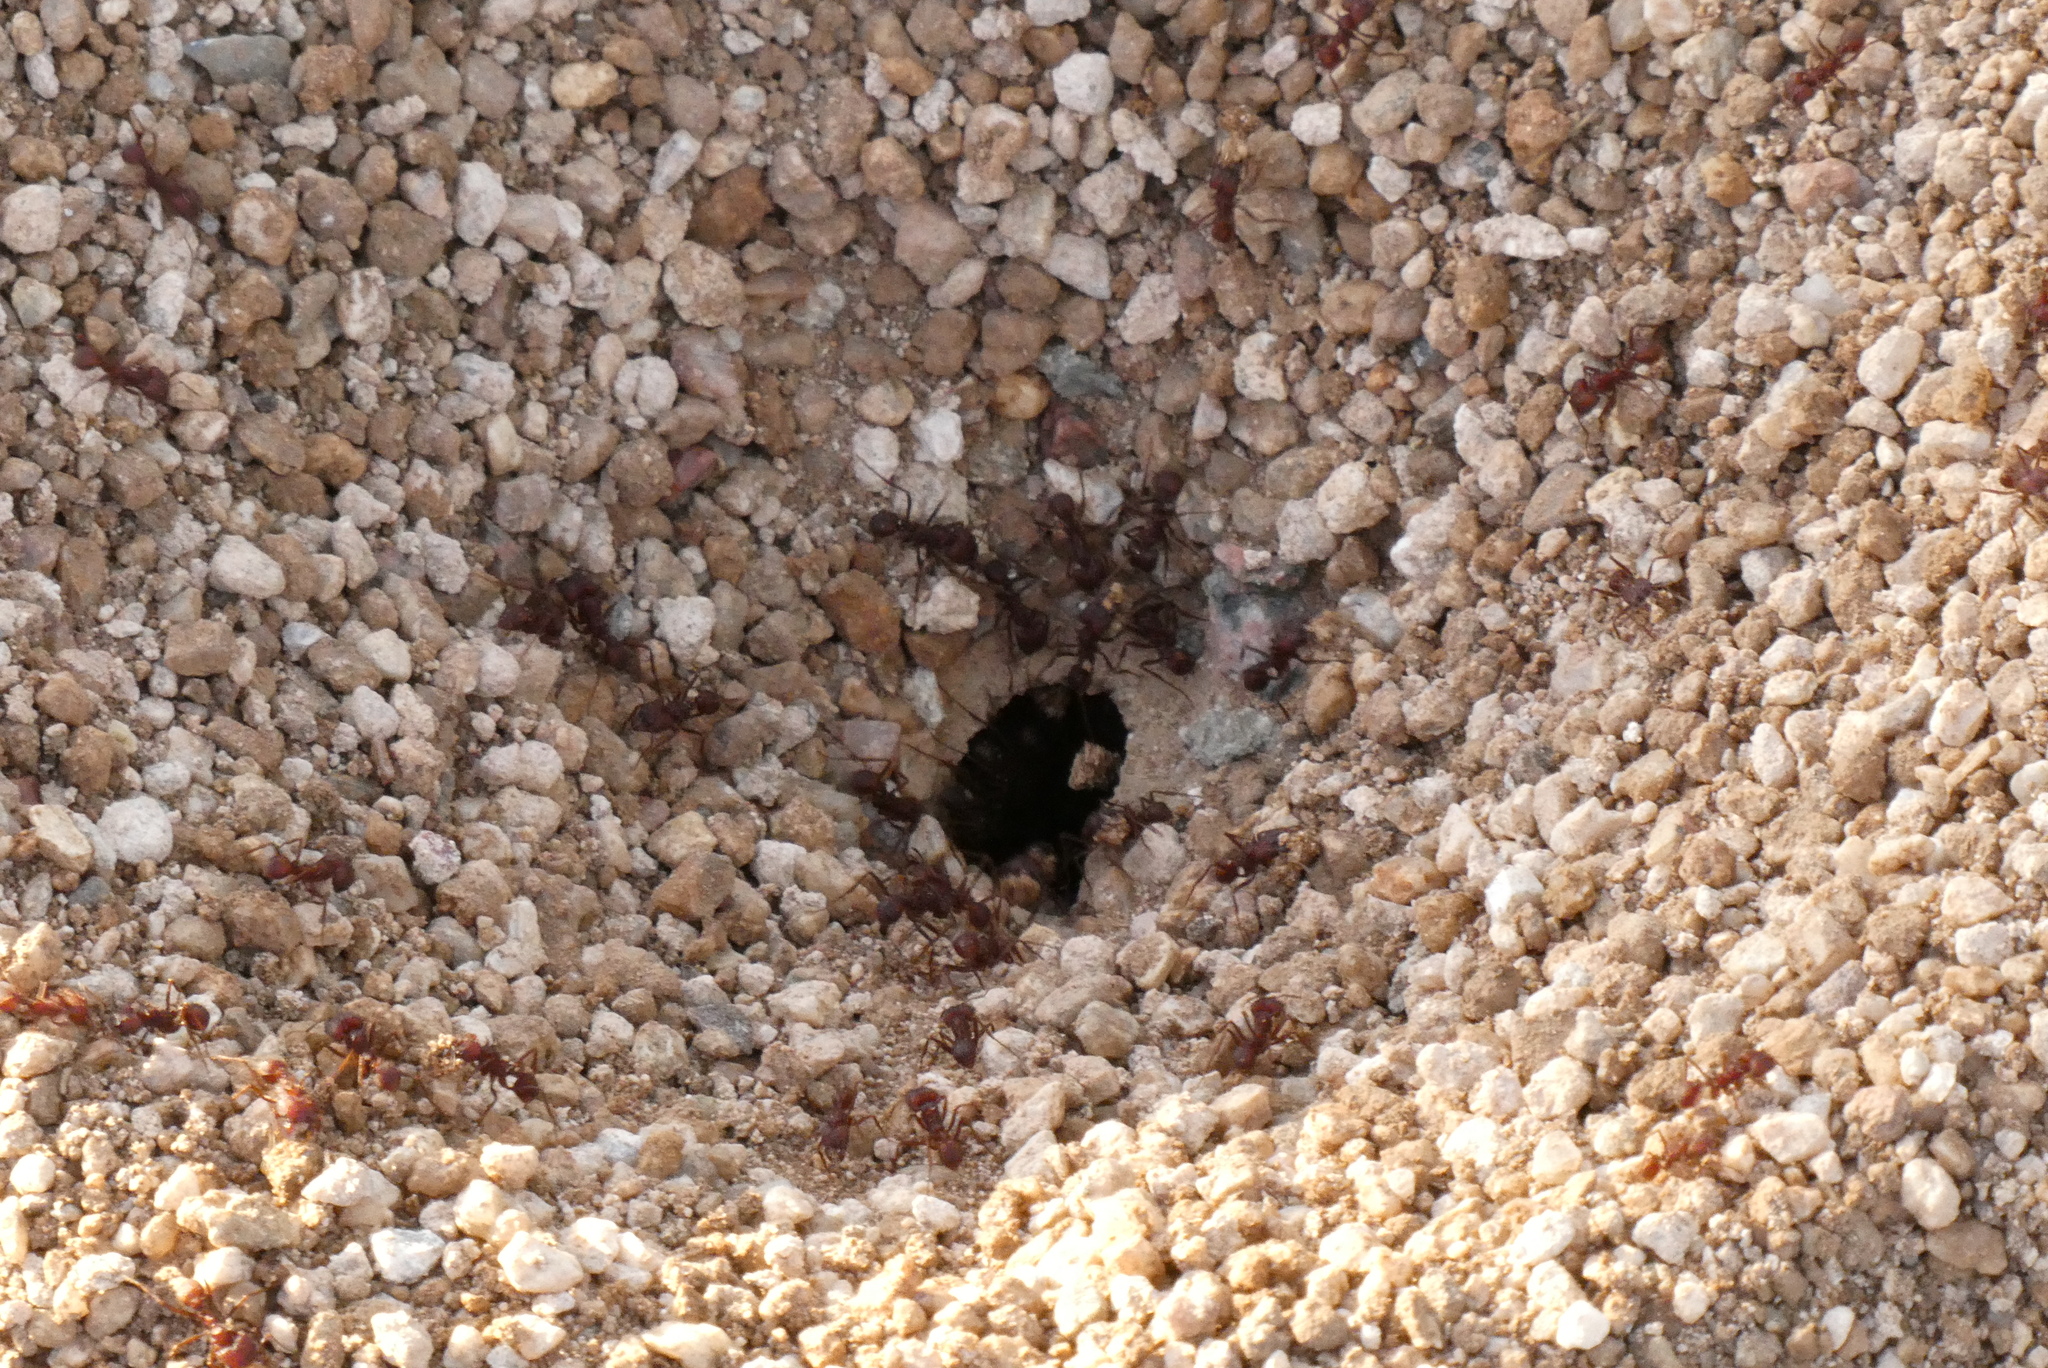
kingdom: Animalia
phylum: Arthropoda
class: Insecta
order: Hymenoptera
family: Formicidae
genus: Acromyrmex
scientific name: Acromyrmex versicolor
